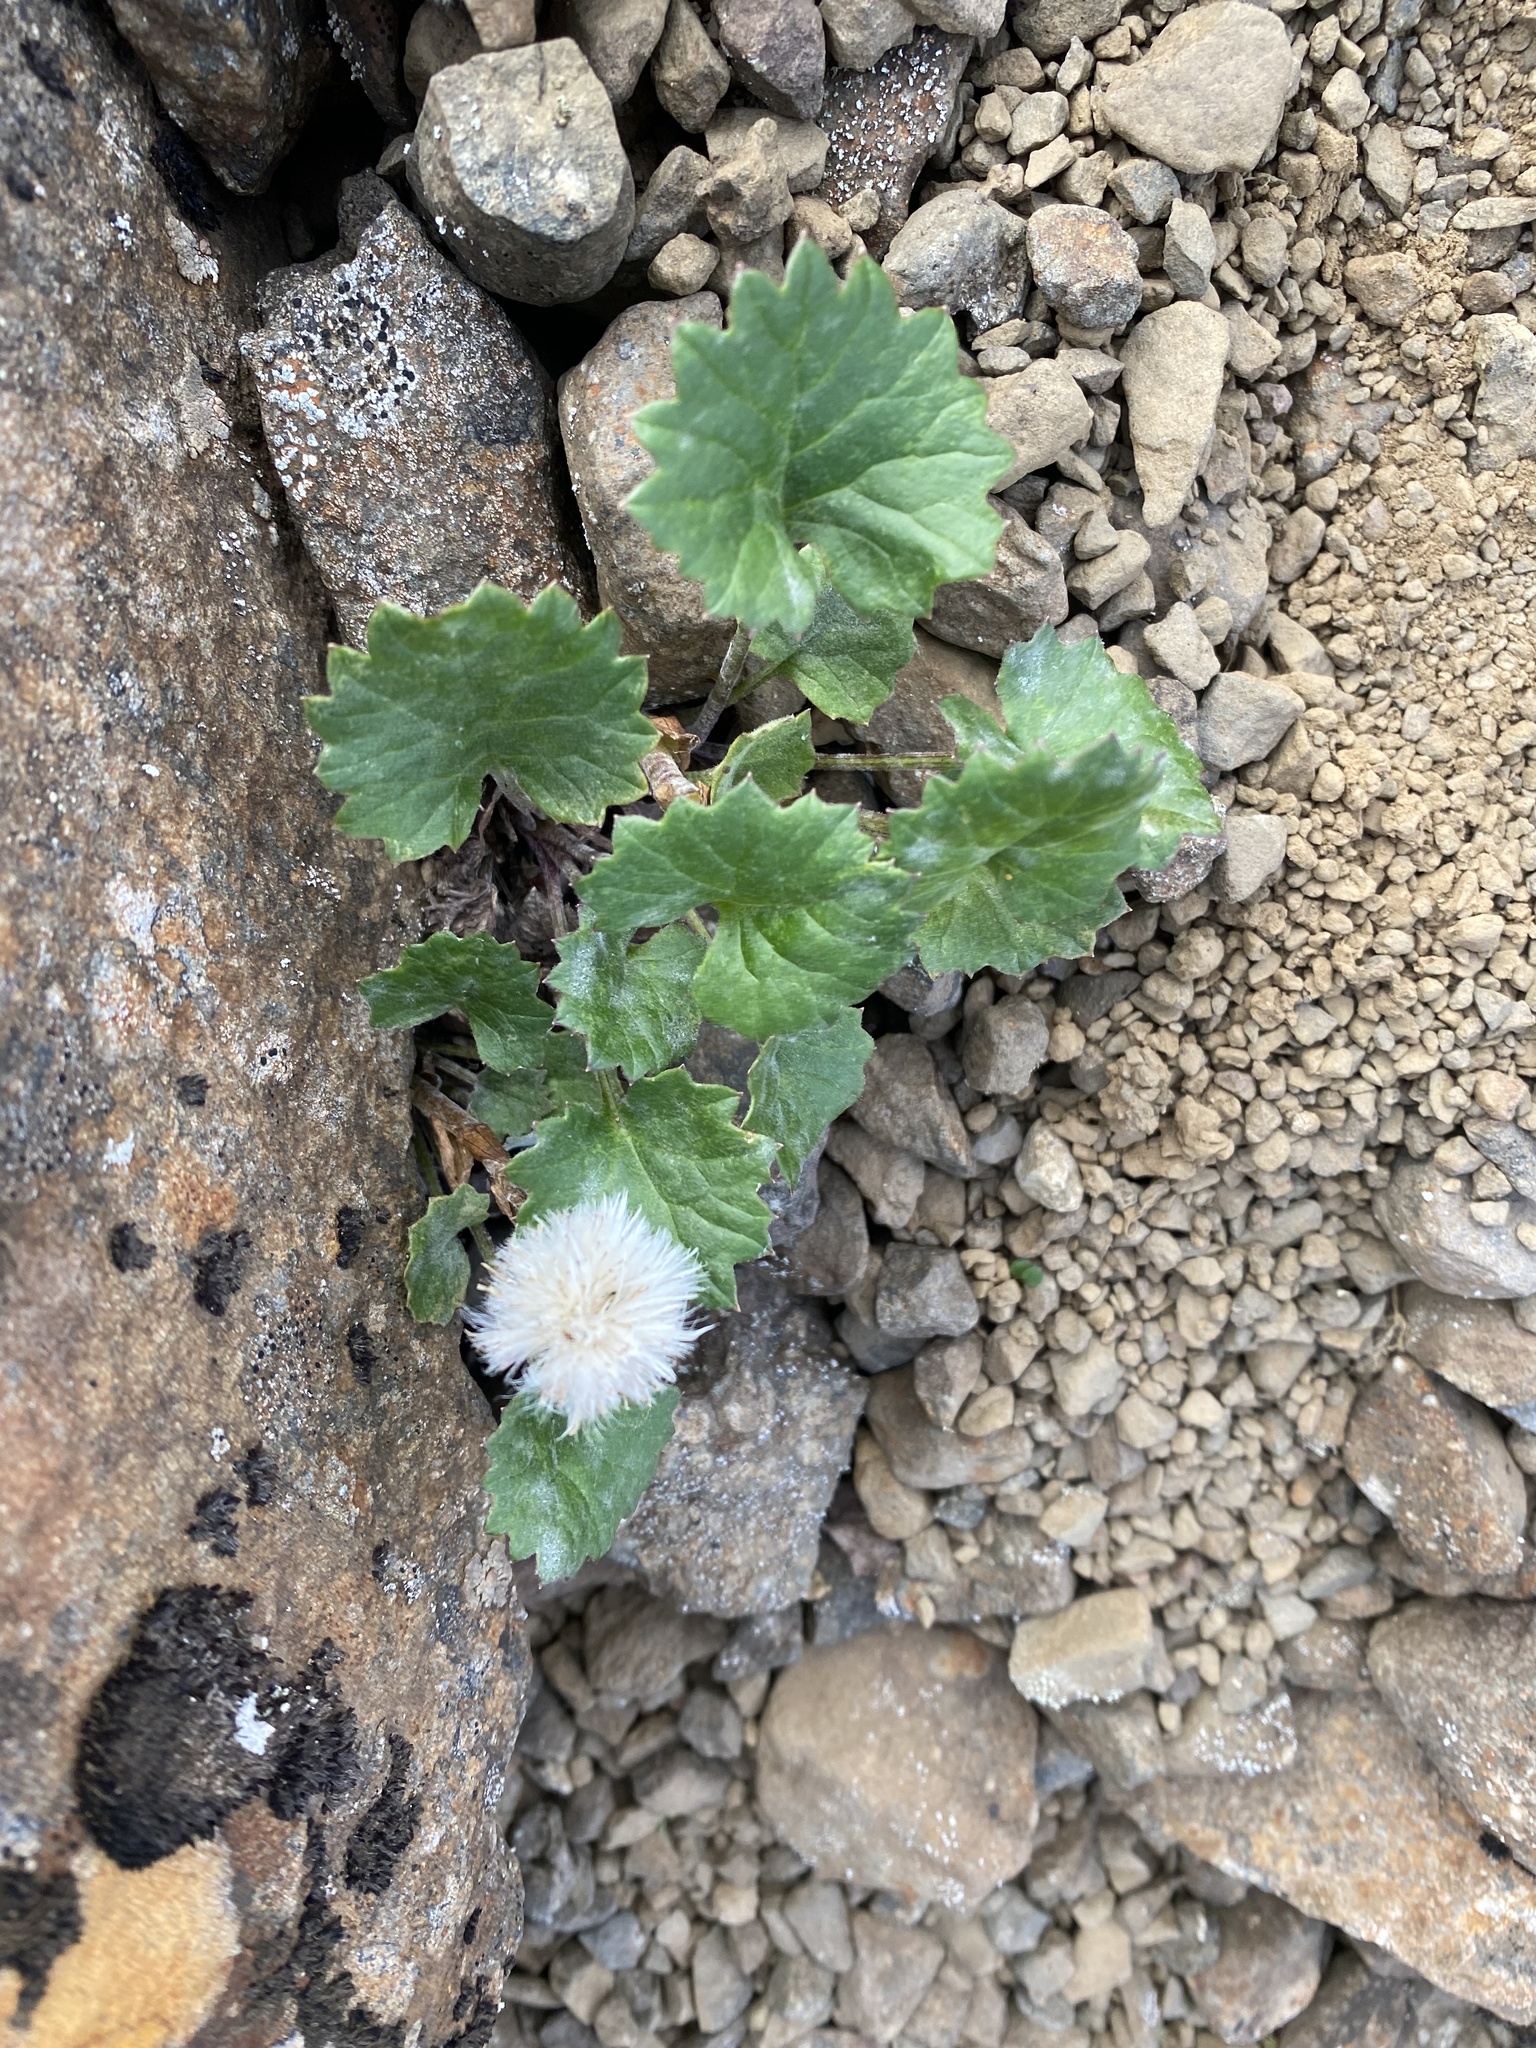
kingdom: Plantae
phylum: Tracheophyta
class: Magnoliopsida
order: Asterales
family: Asteraceae
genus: Endocellion
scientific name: Endocellion glaciale
